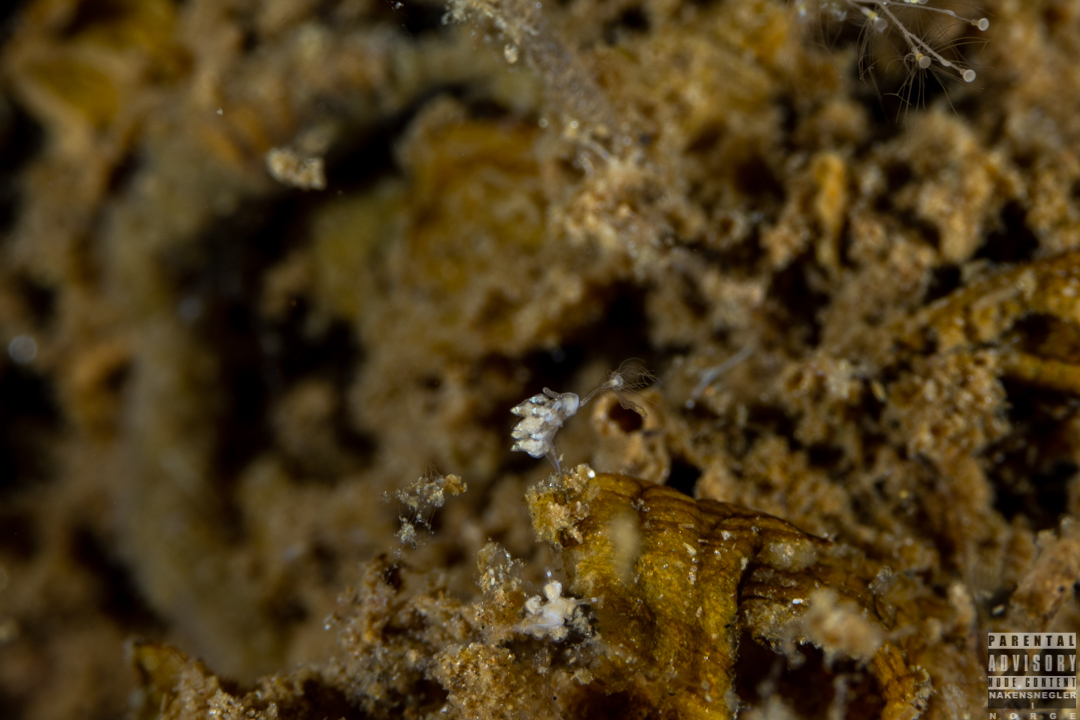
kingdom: Animalia
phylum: Mollusca
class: Gastropoda
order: Nudibranchia
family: Eubranchidae
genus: Eubranchus
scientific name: Eubranchus exiguus
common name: Balloon aeolis
